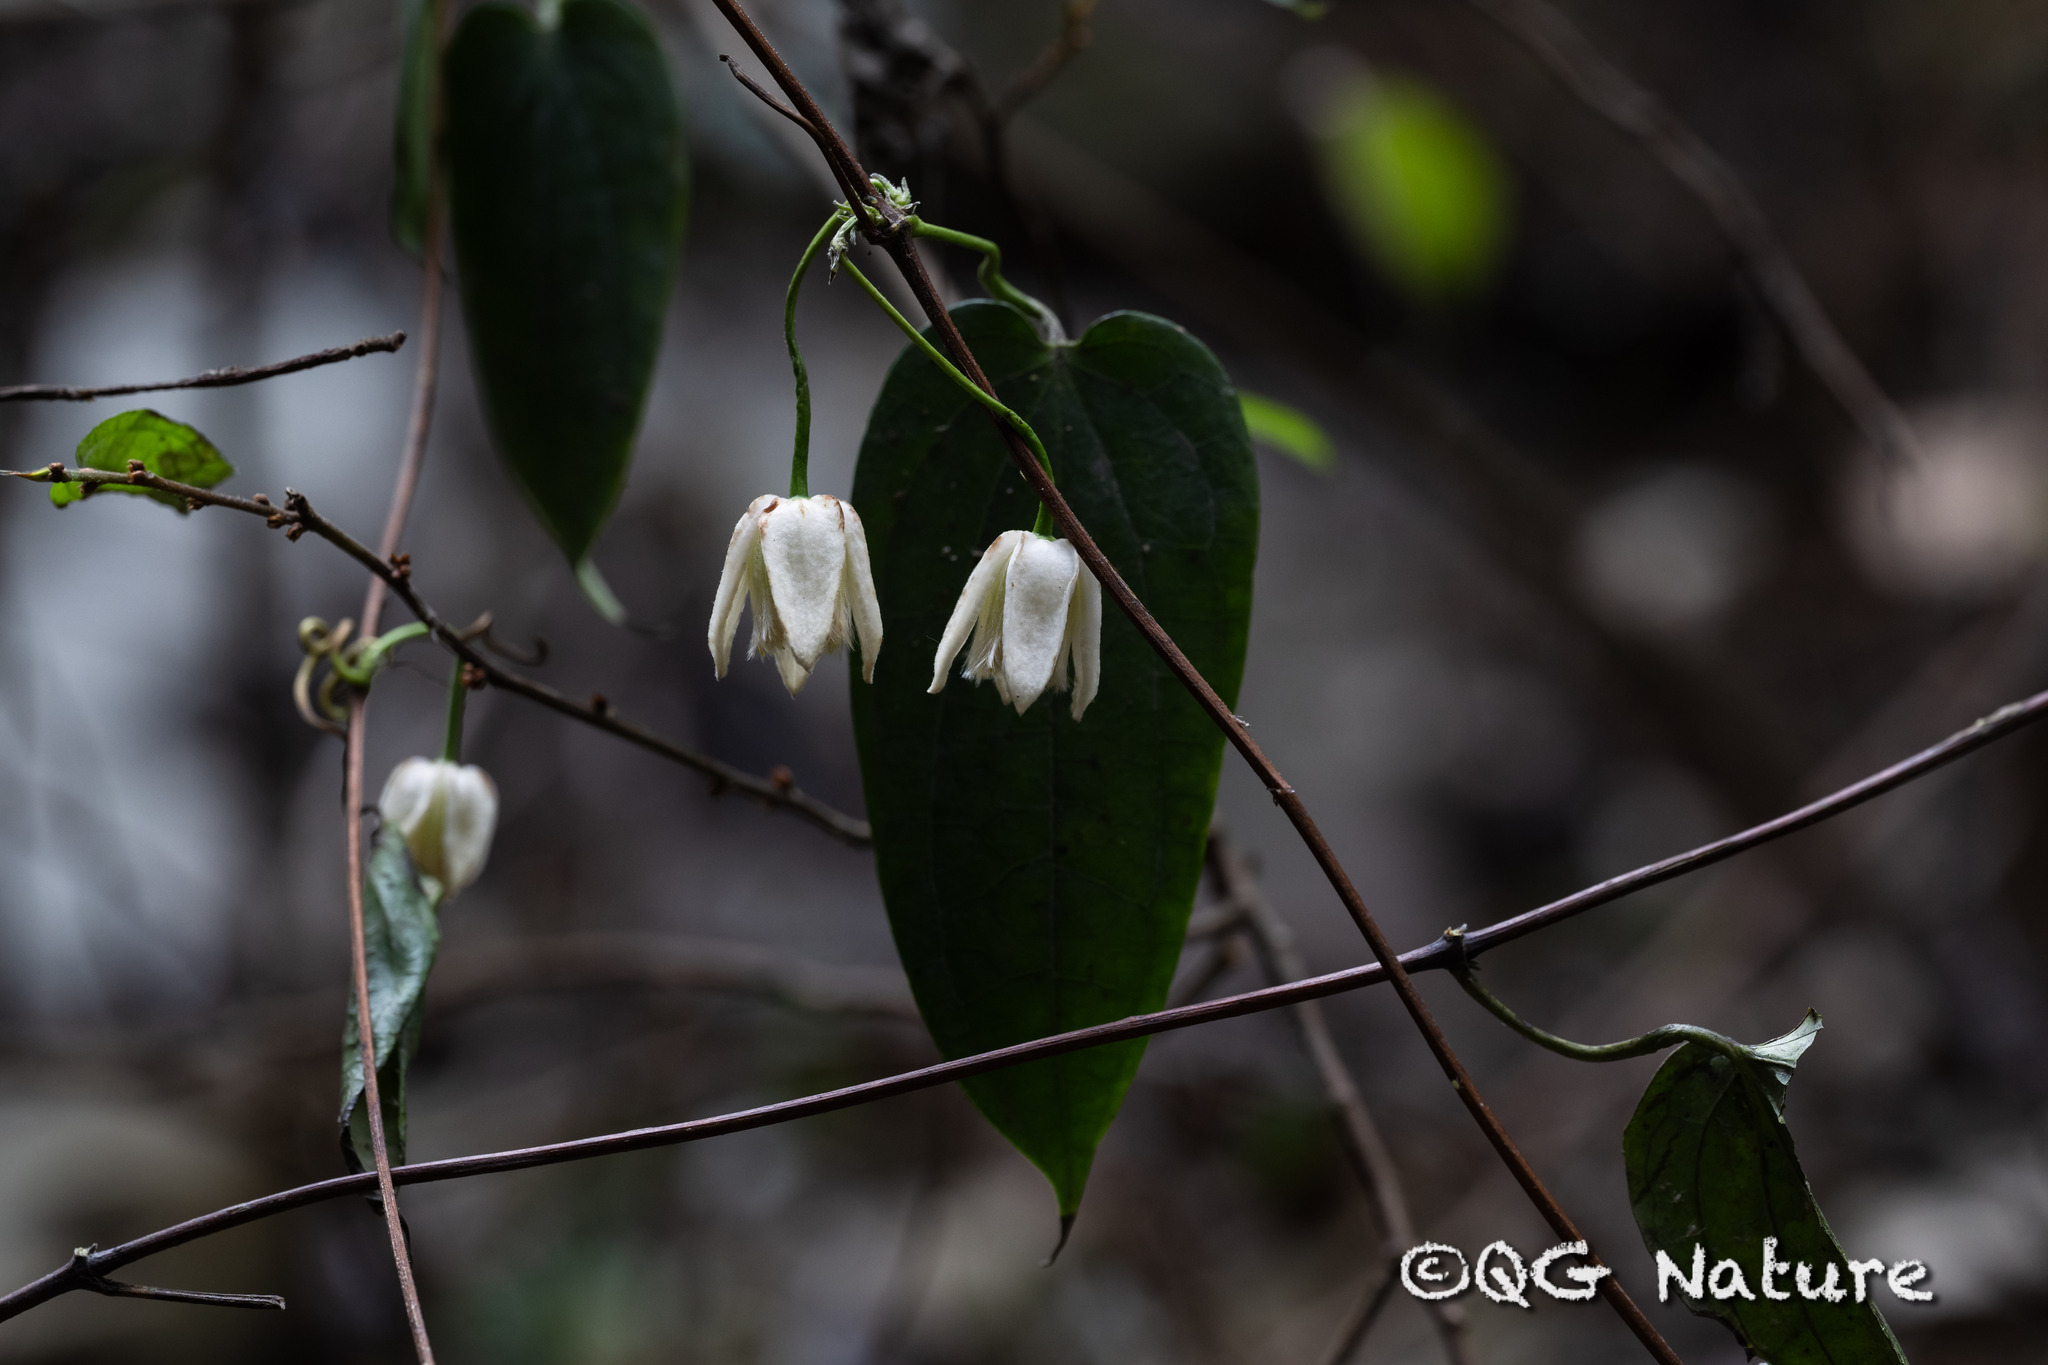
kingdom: Plantae
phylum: Tracheophyta
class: Magnoliopsida
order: Ranunculales
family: Ranunculaceae
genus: Clematis
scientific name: Clematis
